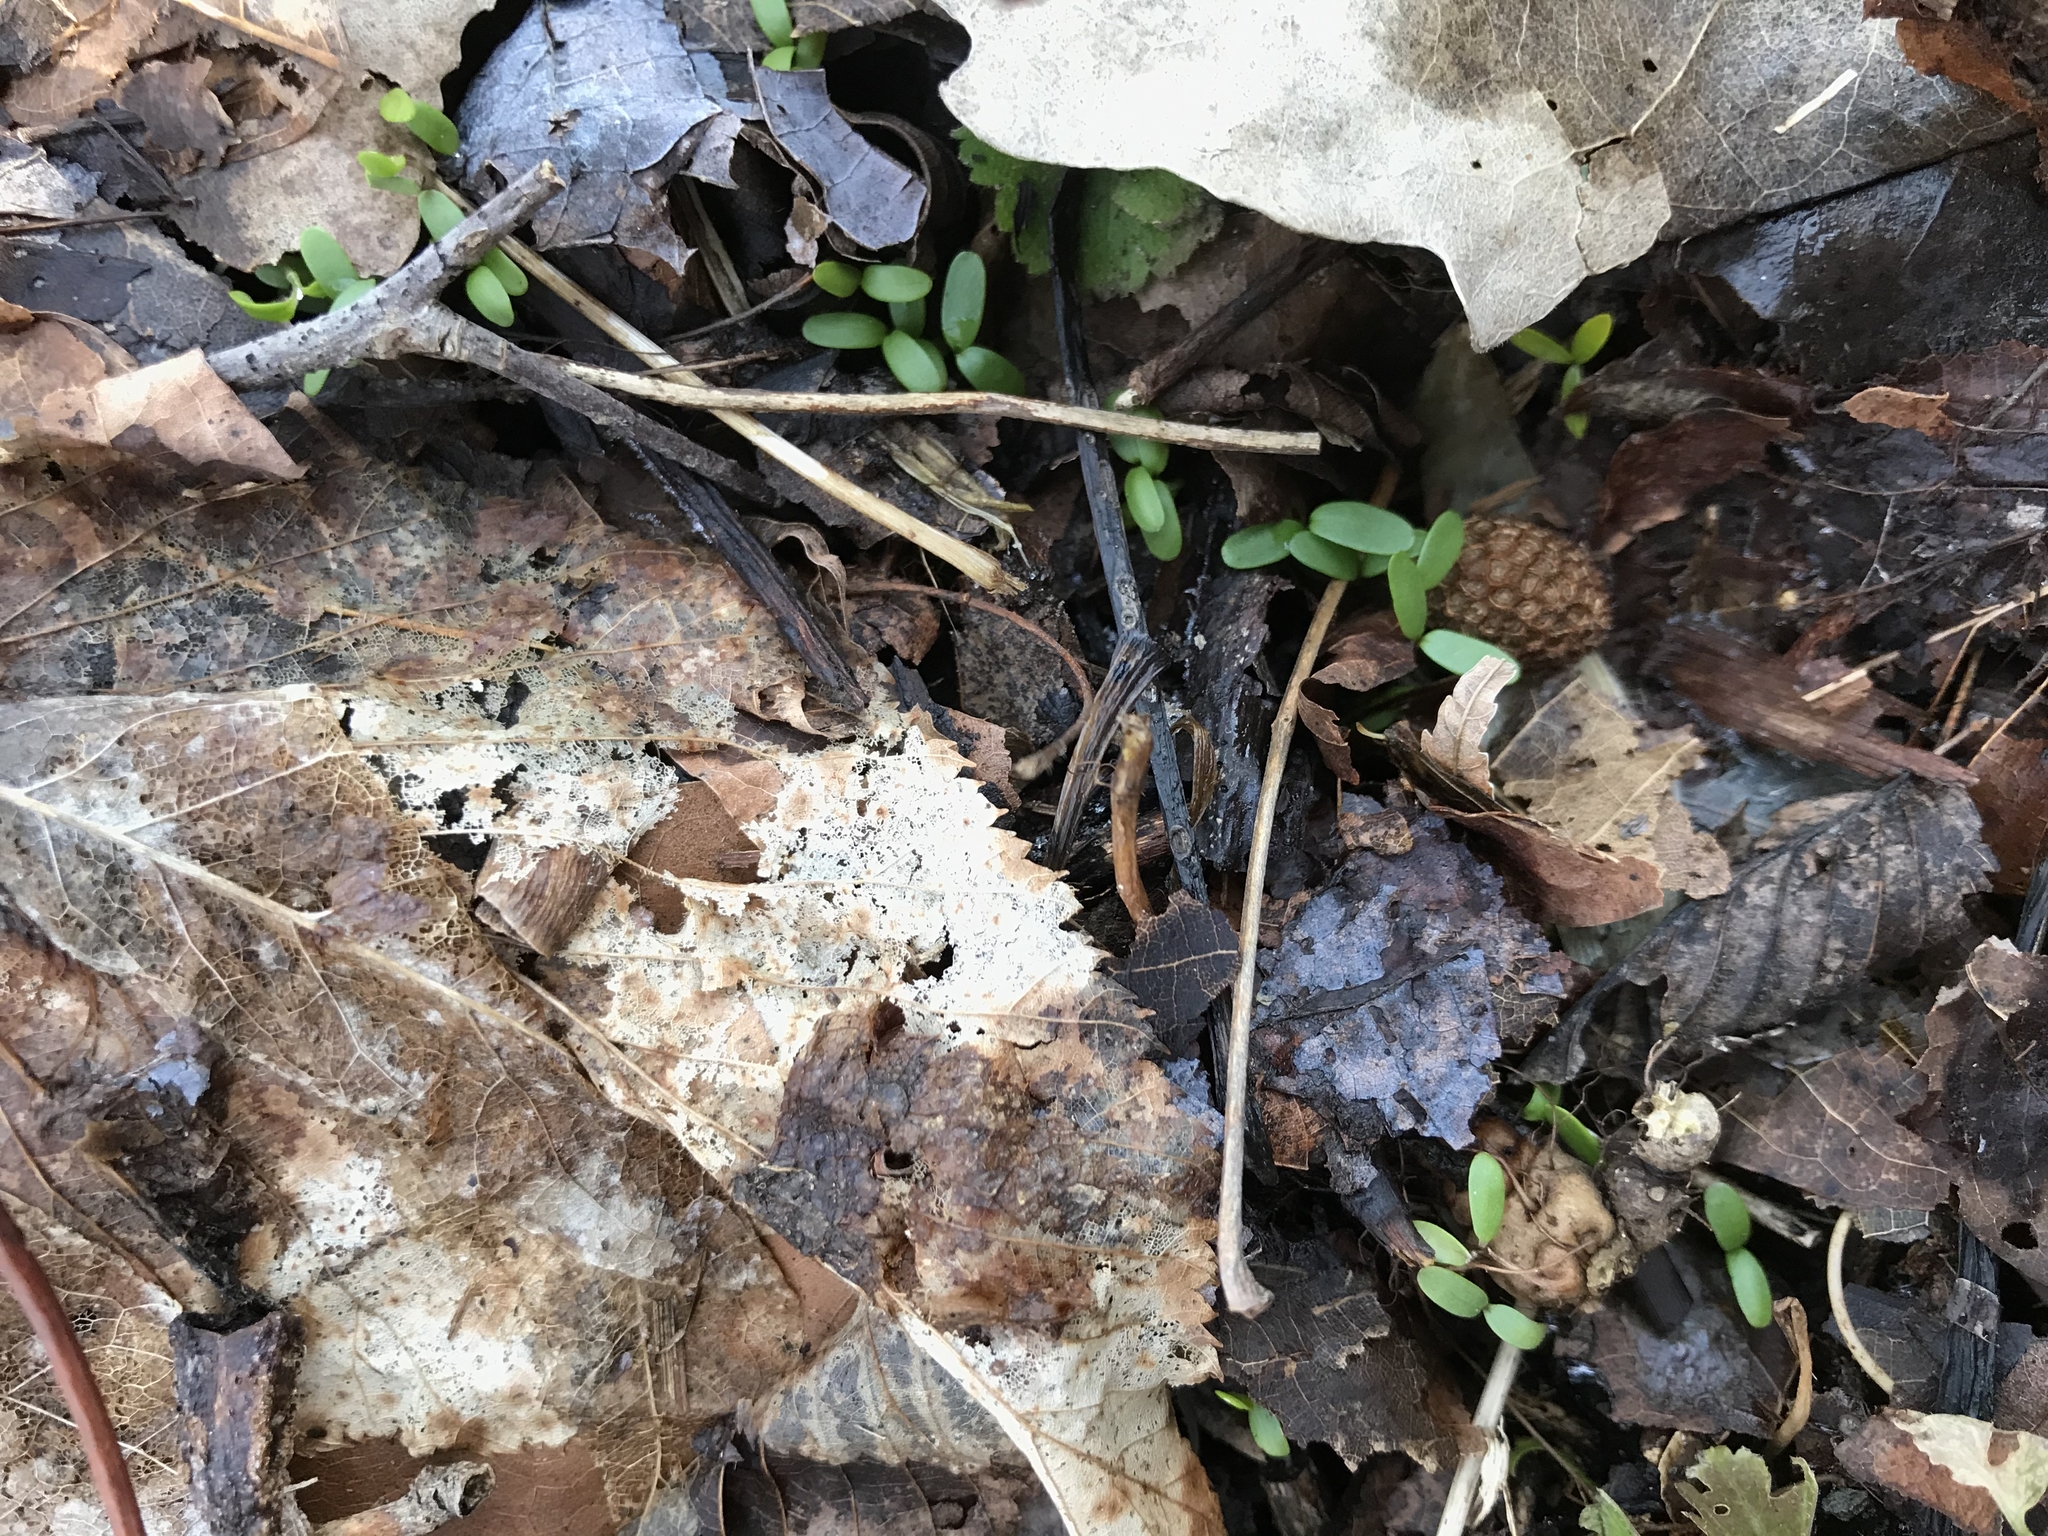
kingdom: Plantae
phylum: Tracheophyta
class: Magnoliopsida
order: Brassicales
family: Brassicaceae
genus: Alliaria
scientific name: Alliaria petiolata
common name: Garlic mustard
